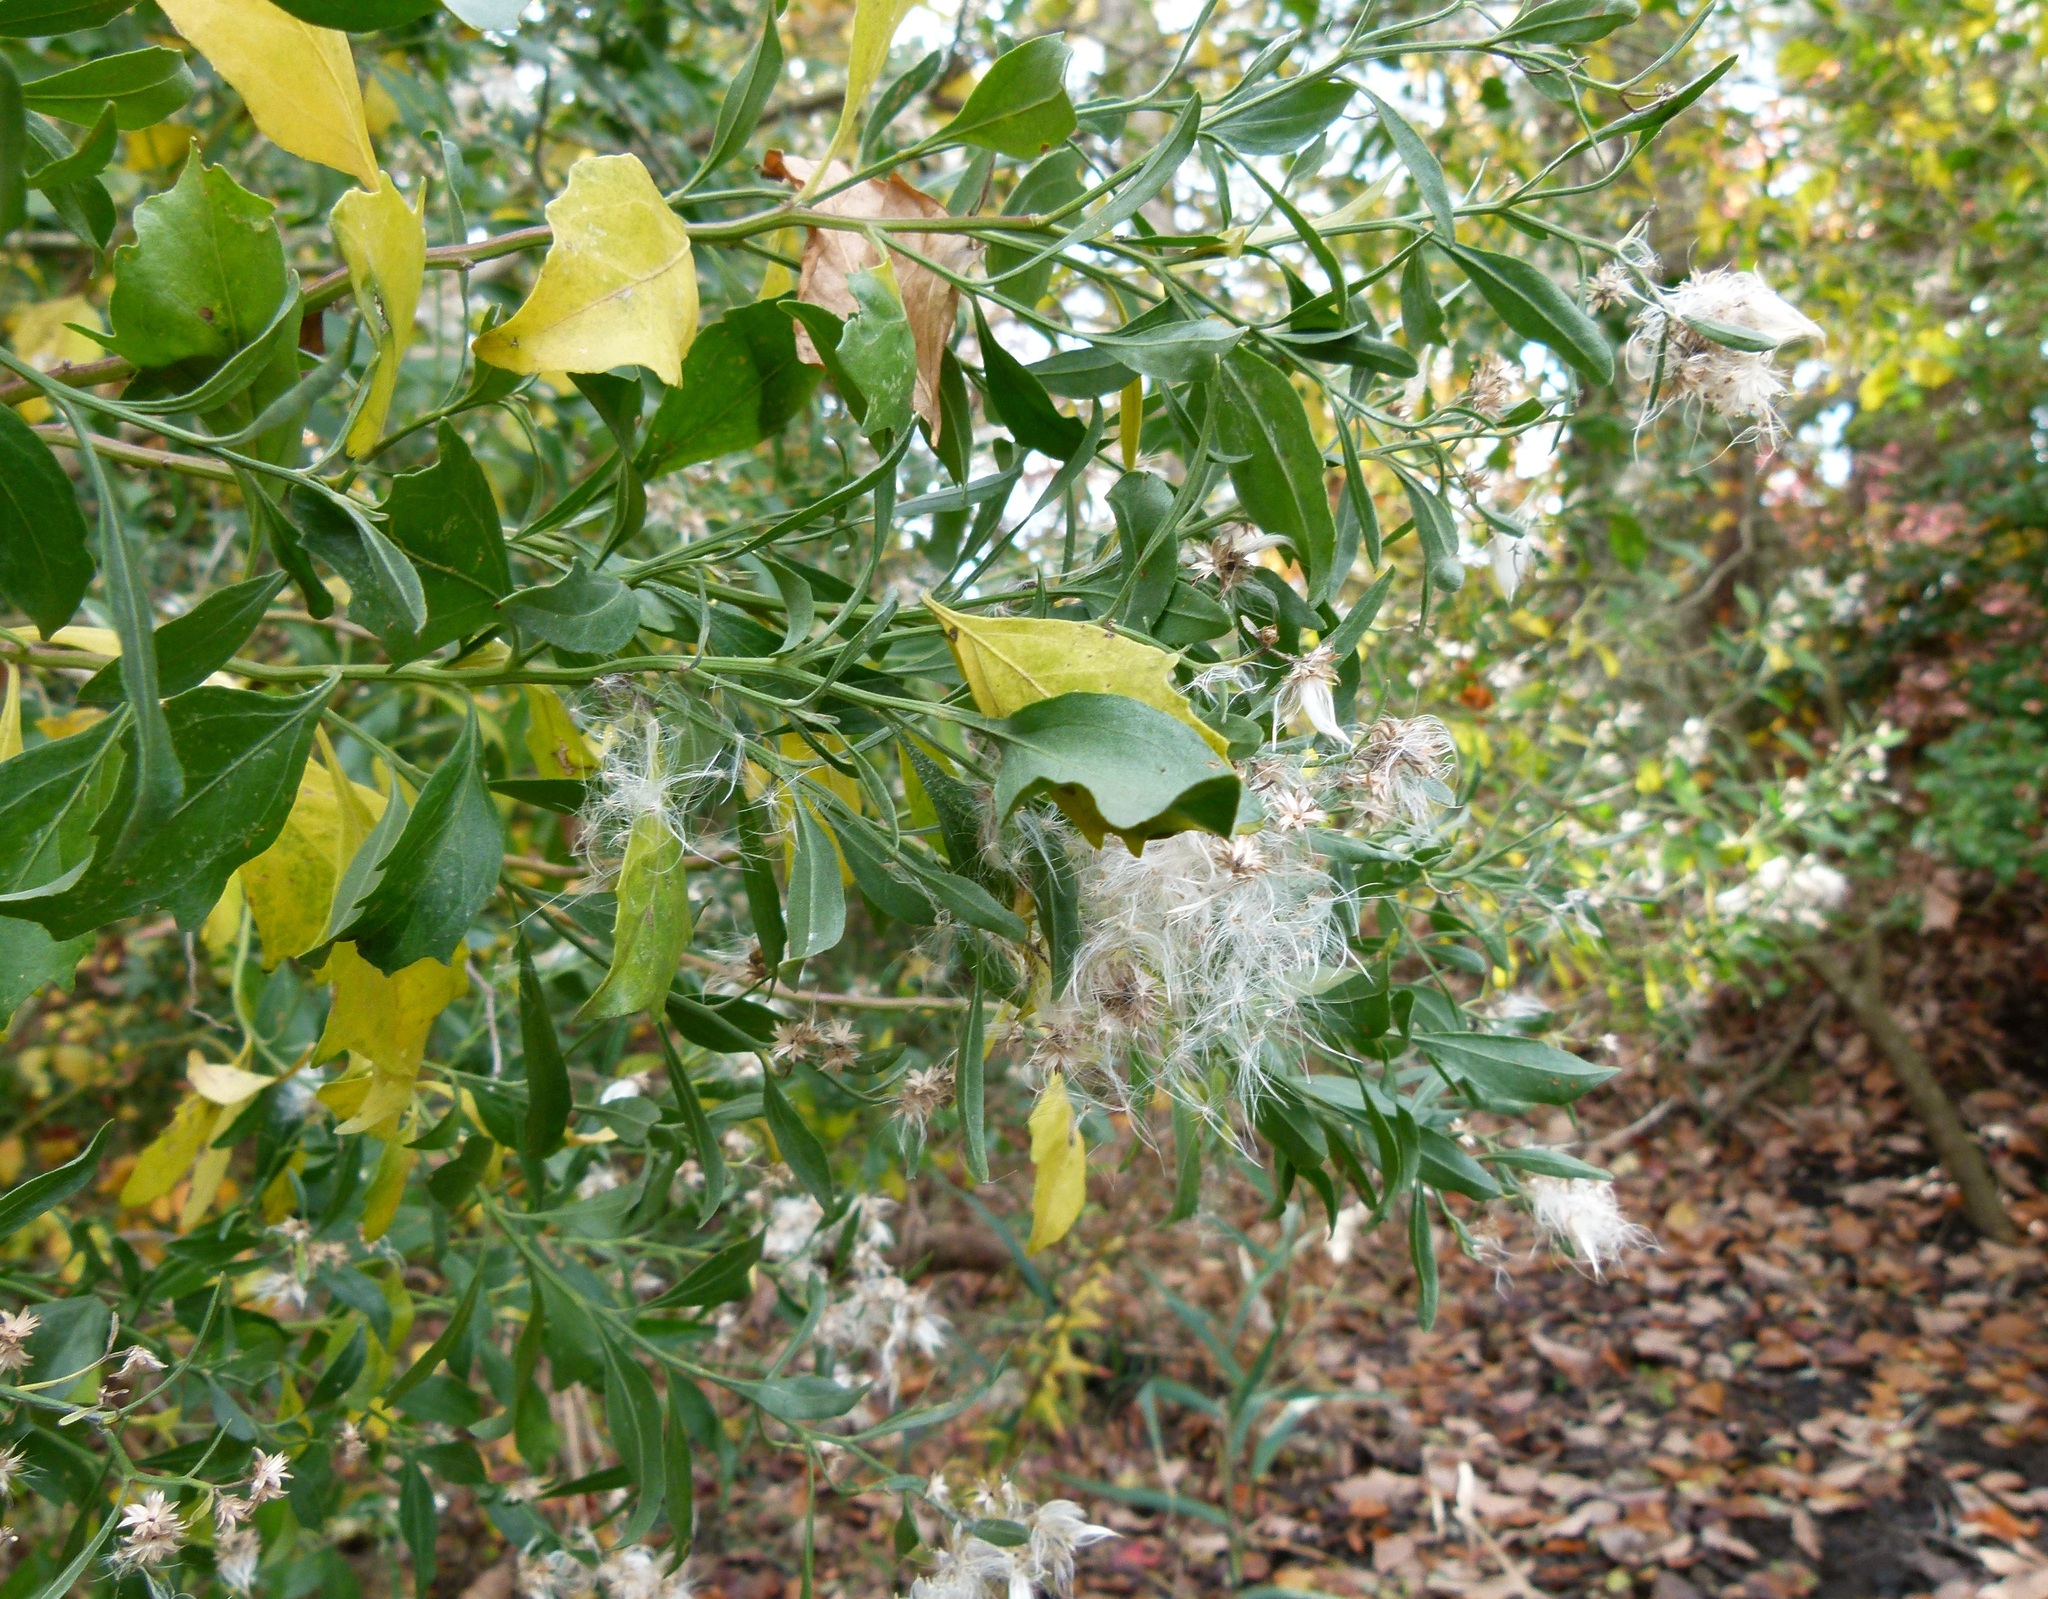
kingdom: Plantae
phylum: Tracheophyta
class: Magnoliopsida
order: Asterales
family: Asteraceae
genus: Baccharis
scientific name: Baccharis halimifolia
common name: Eastern baccharis
